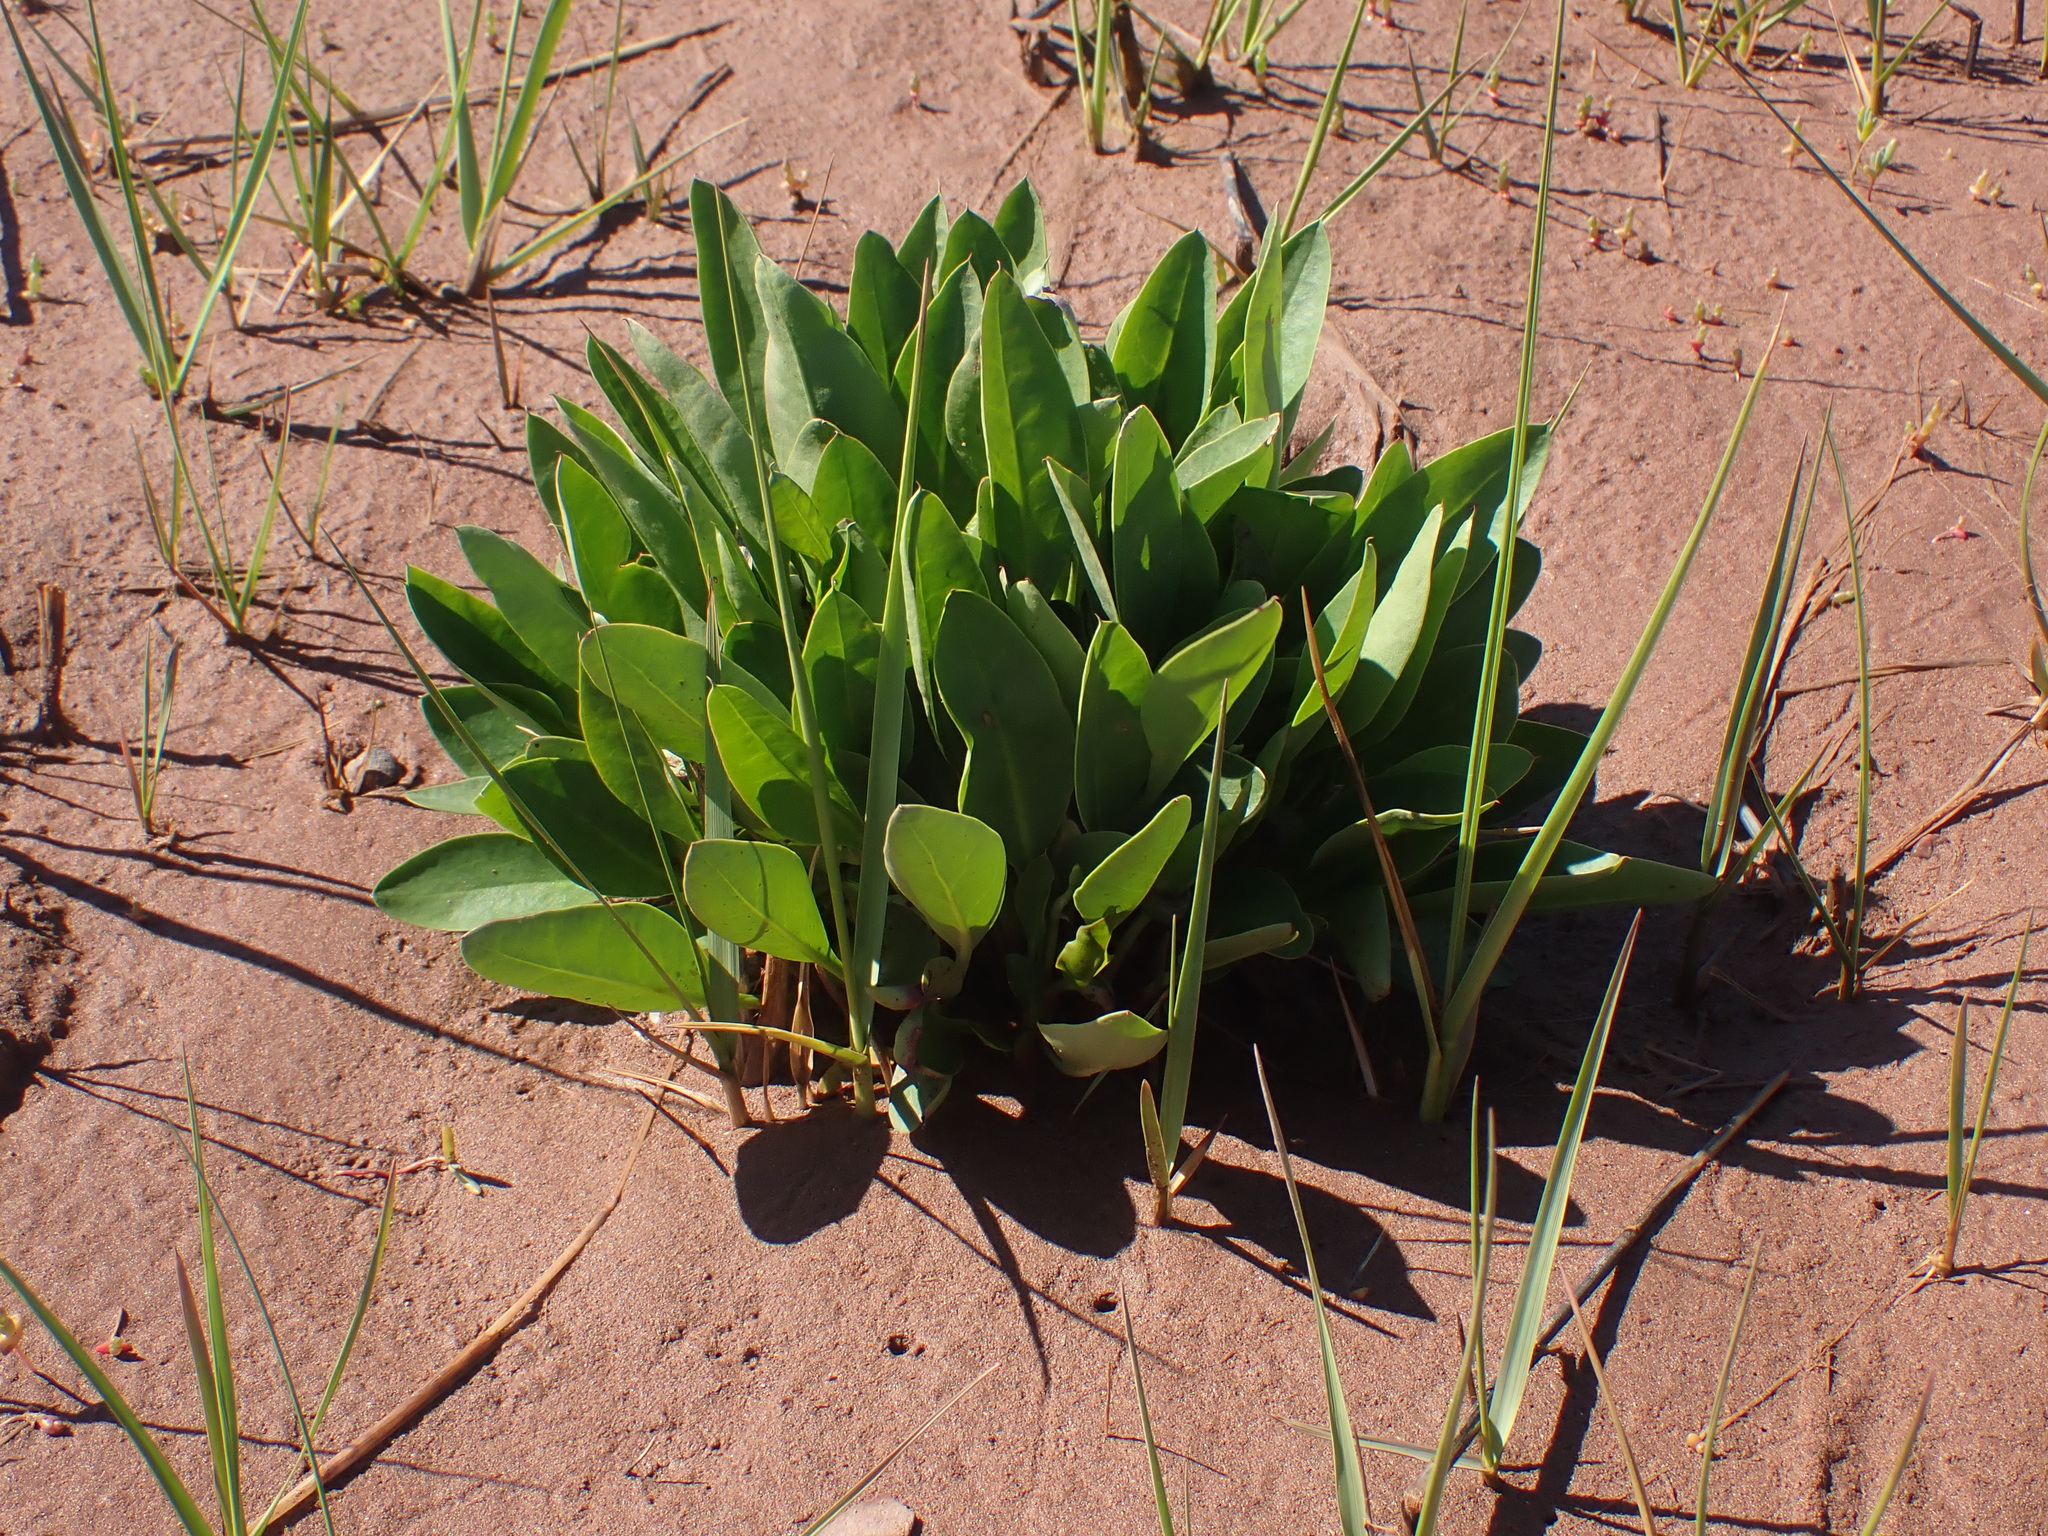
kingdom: Plantae
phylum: Tracheophyta
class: Magnoliopsida
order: Caryophyllales
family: Plumbaginaceae
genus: Limonium
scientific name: Limonium carolinianum
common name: Carolina sea lavender
